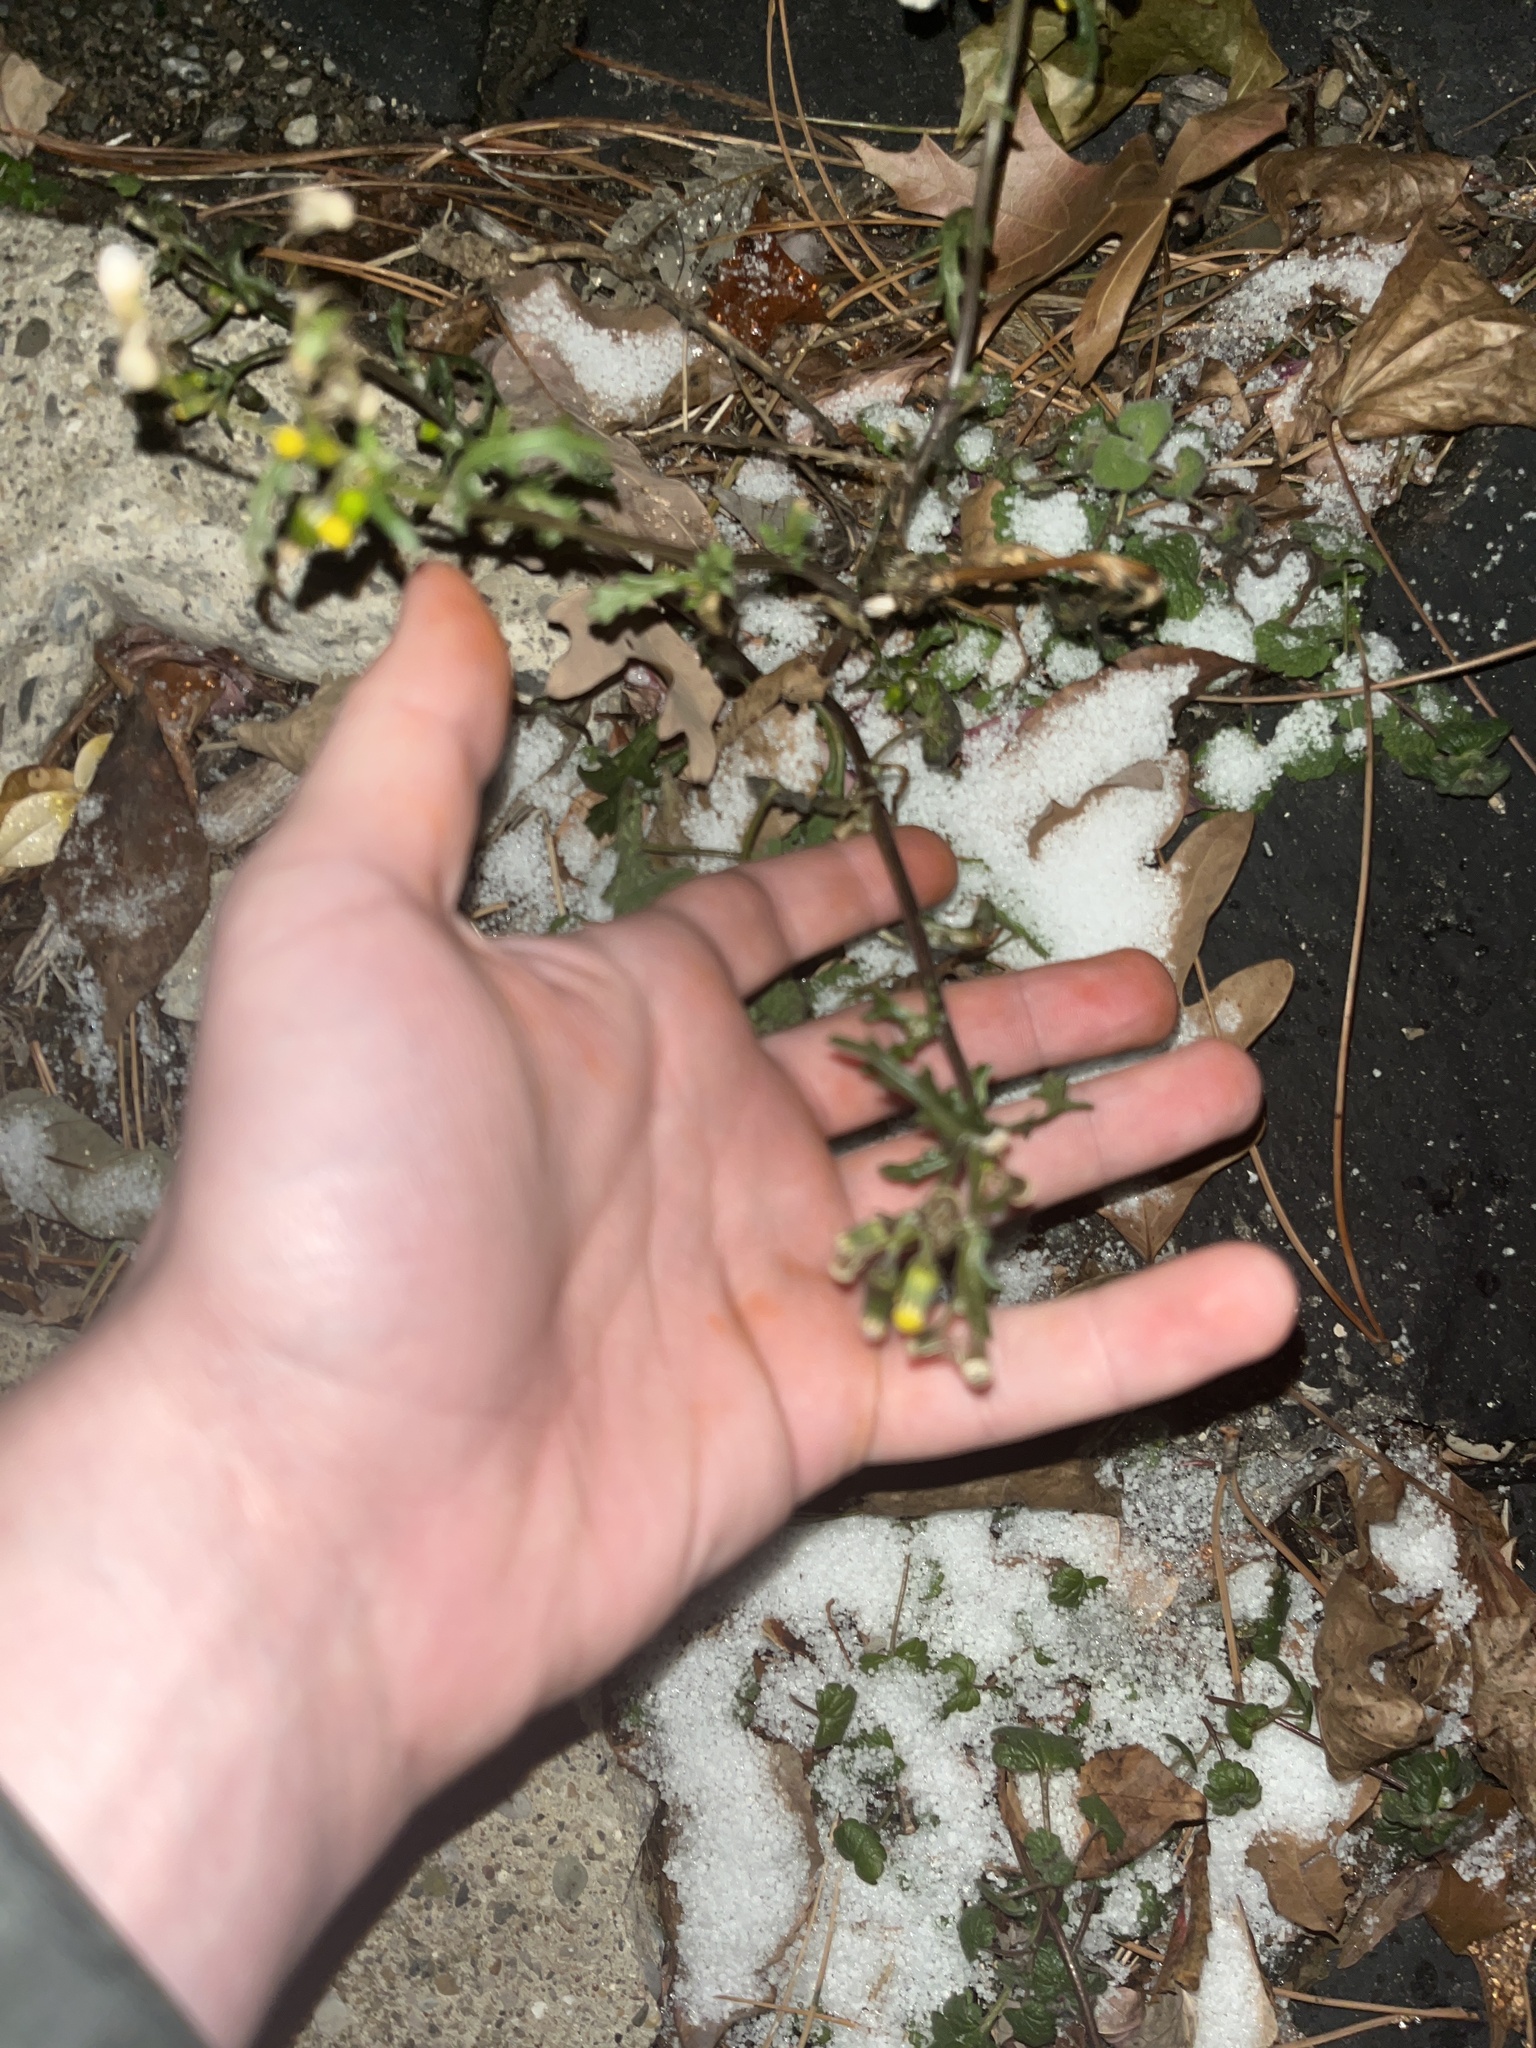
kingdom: Plantae
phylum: Tracheophyta
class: Magnoliopsida
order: Asterales
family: Asteraceae
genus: Senecio
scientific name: Senecio vulgaris
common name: Old-man-in-the-spring
